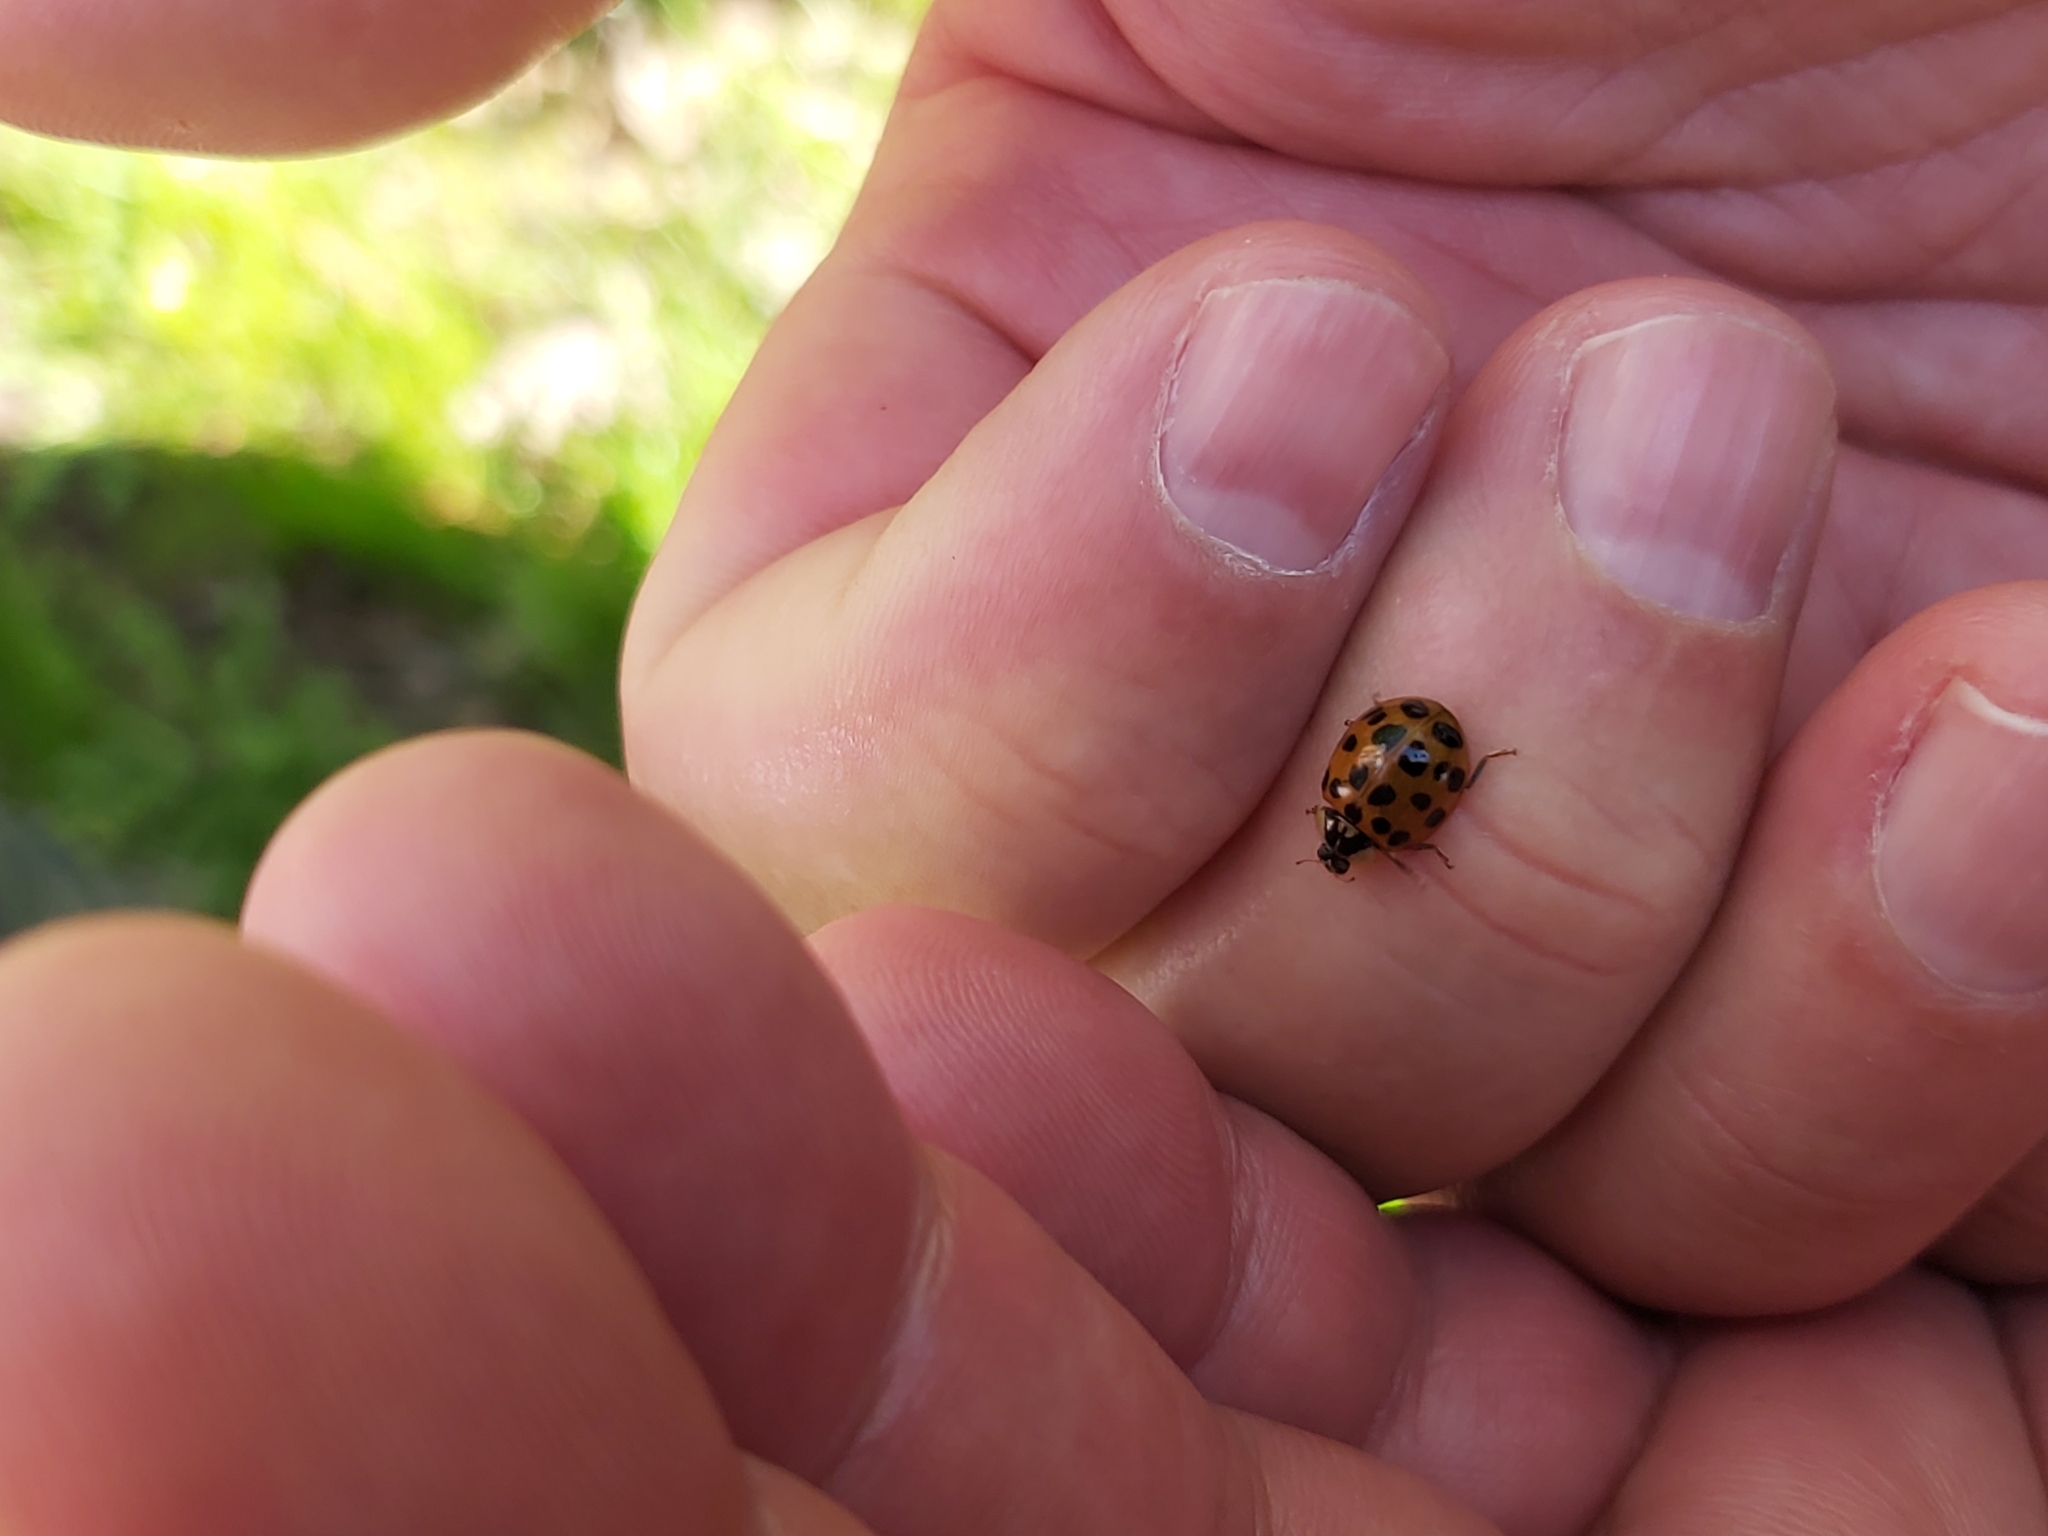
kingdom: Animalia
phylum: Arthropoda
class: Insecta
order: Coleoptera
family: Coccinellidae
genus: Harmonia
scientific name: Harmonia axyridis
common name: Harlequin ladybird
